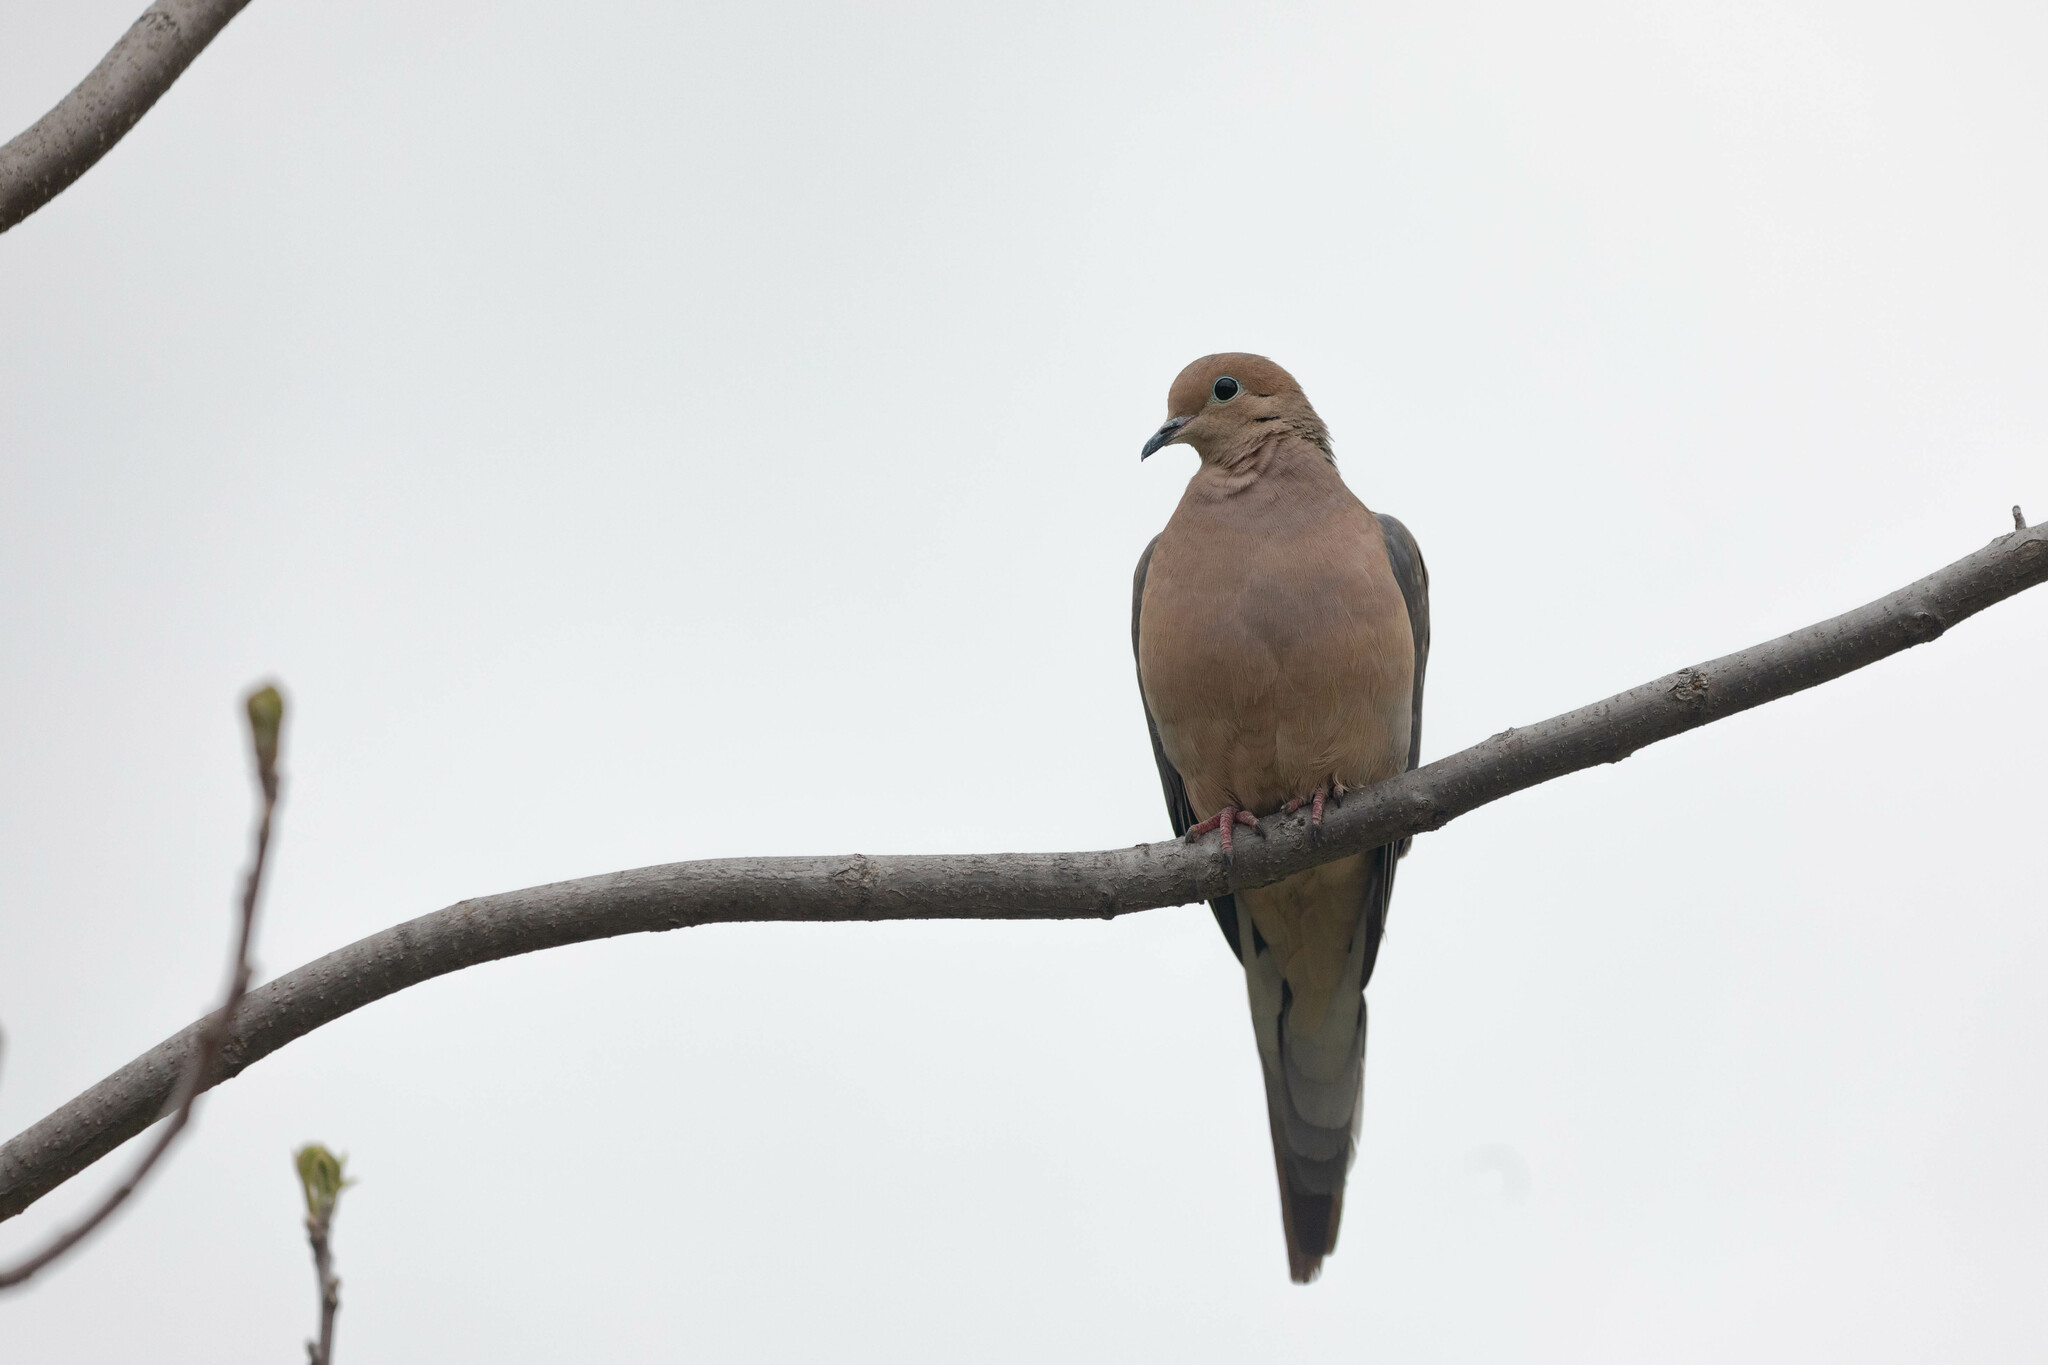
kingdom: Animalia
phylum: Chordata
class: Aves
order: Columbiformes
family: Columbidae
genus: Zenaida
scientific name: Zenaida macroura
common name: Mourning dove
